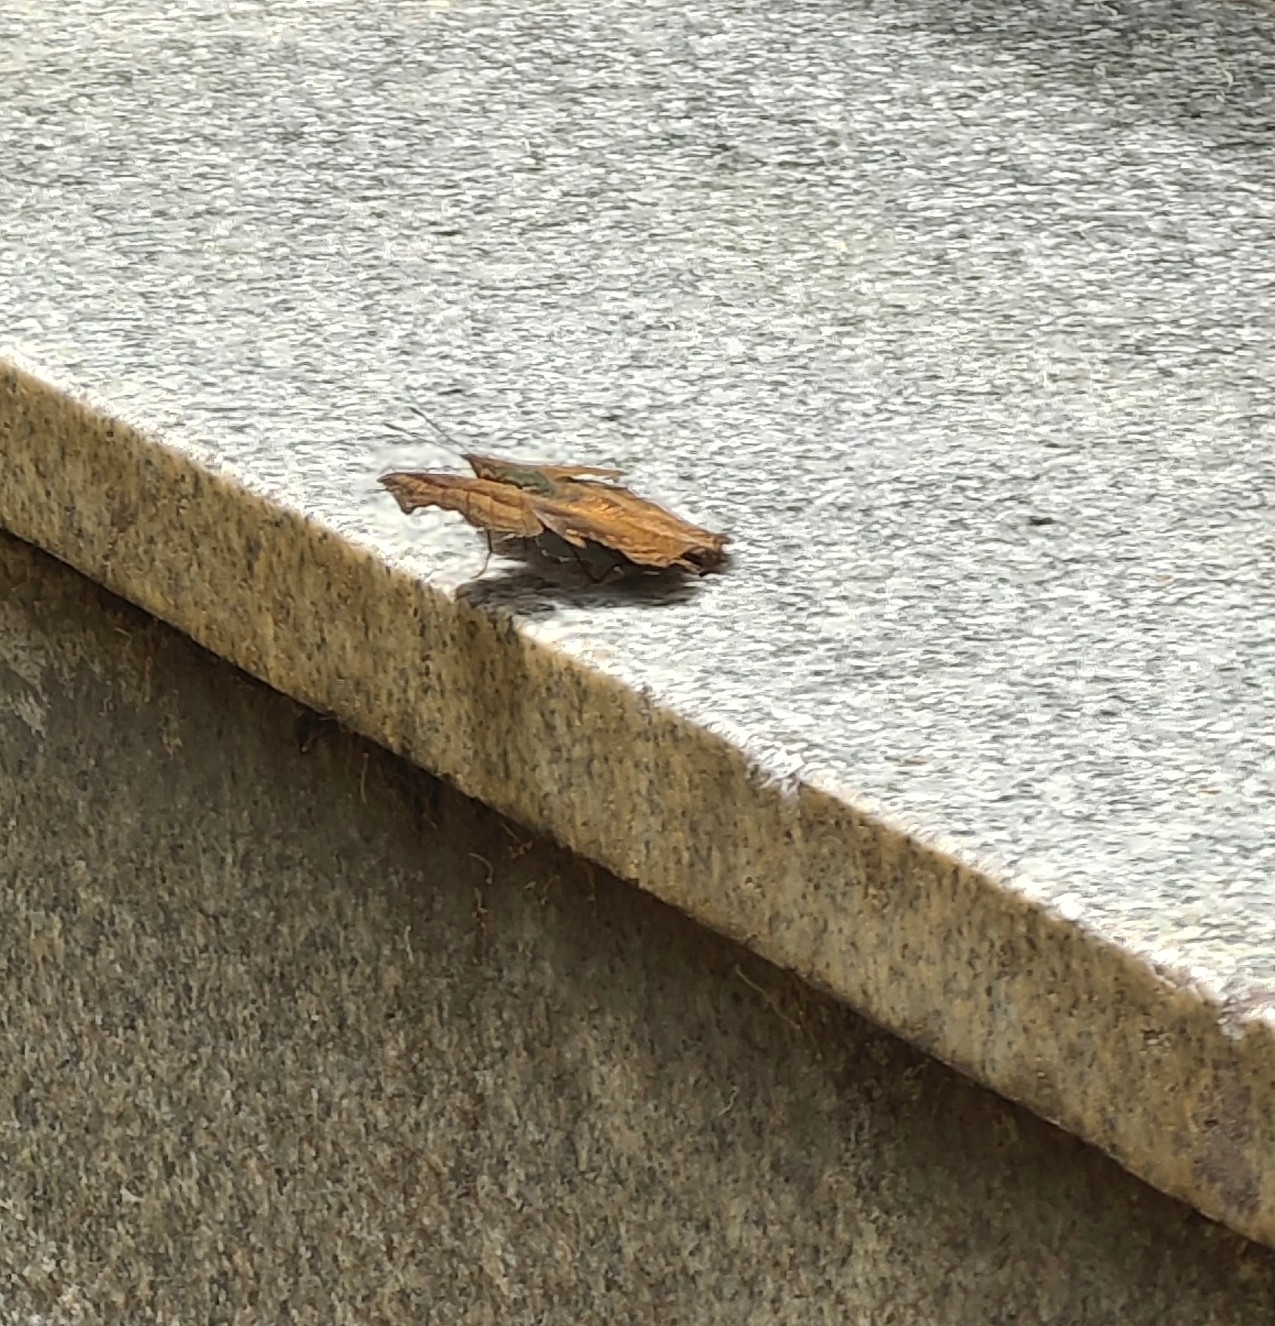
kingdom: Animalia
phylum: Arthropoda
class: Insecta
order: Lepidoptera
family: Nymphalidae
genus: Junonia
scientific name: Junonia iphita
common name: Chocolate pansy
